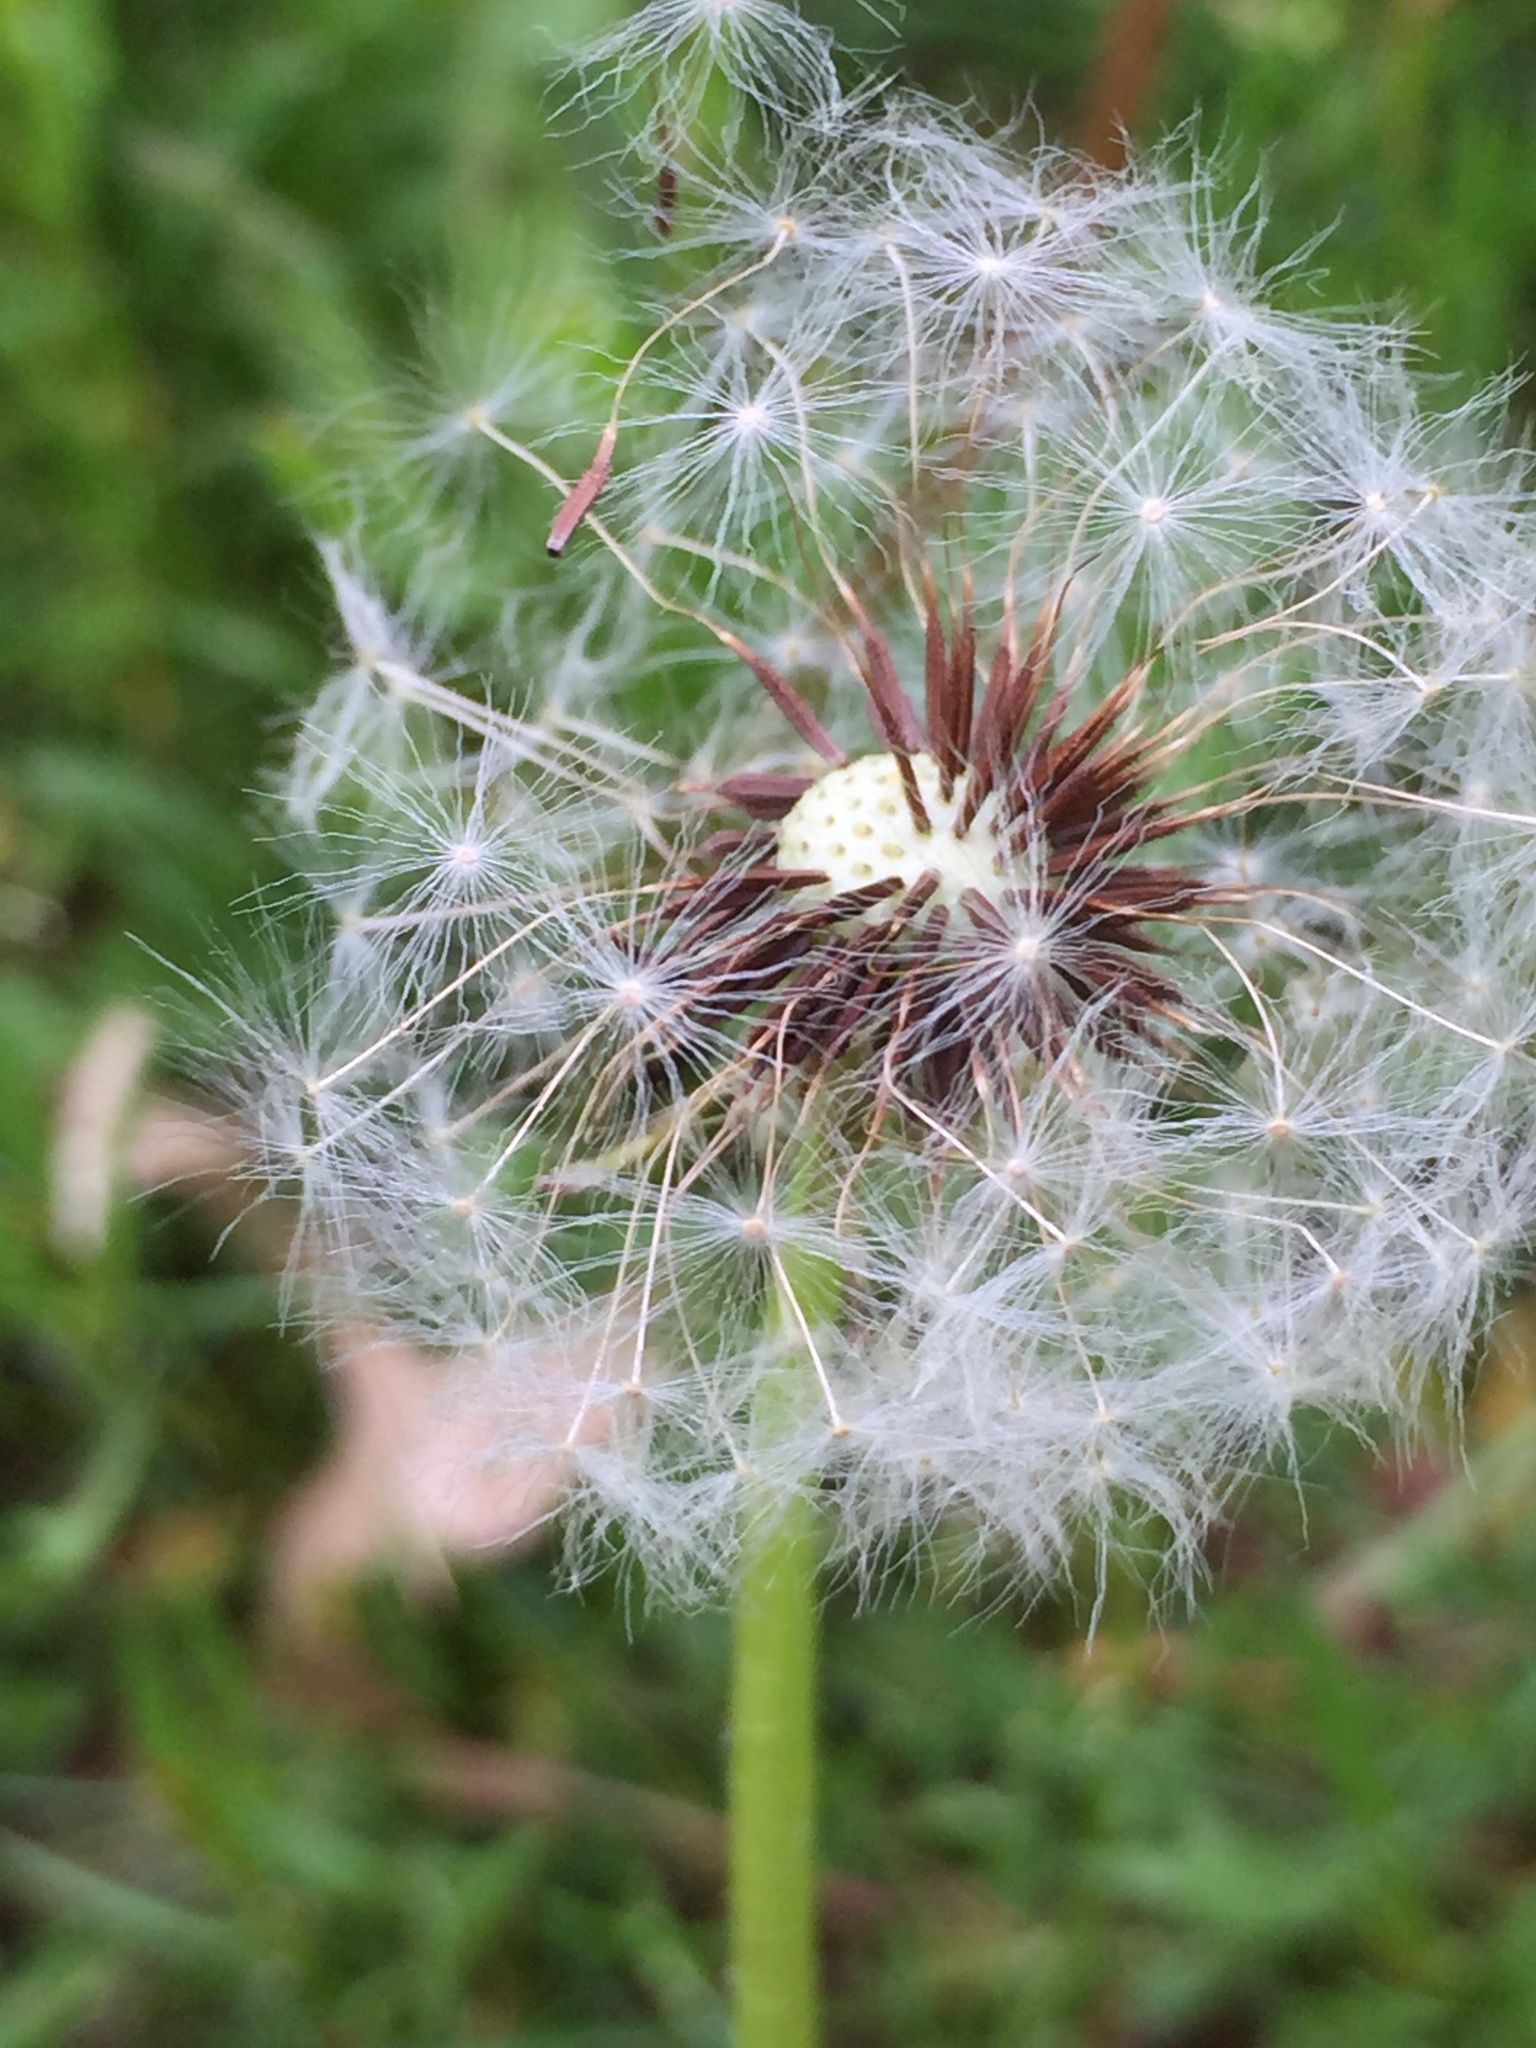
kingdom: Plantae
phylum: Tracheophyta
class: Magnoliopsida
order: Asterales
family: Asteraceae
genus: Taraxacum
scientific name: Taraxacum erythrospermum
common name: Rock dandelion
